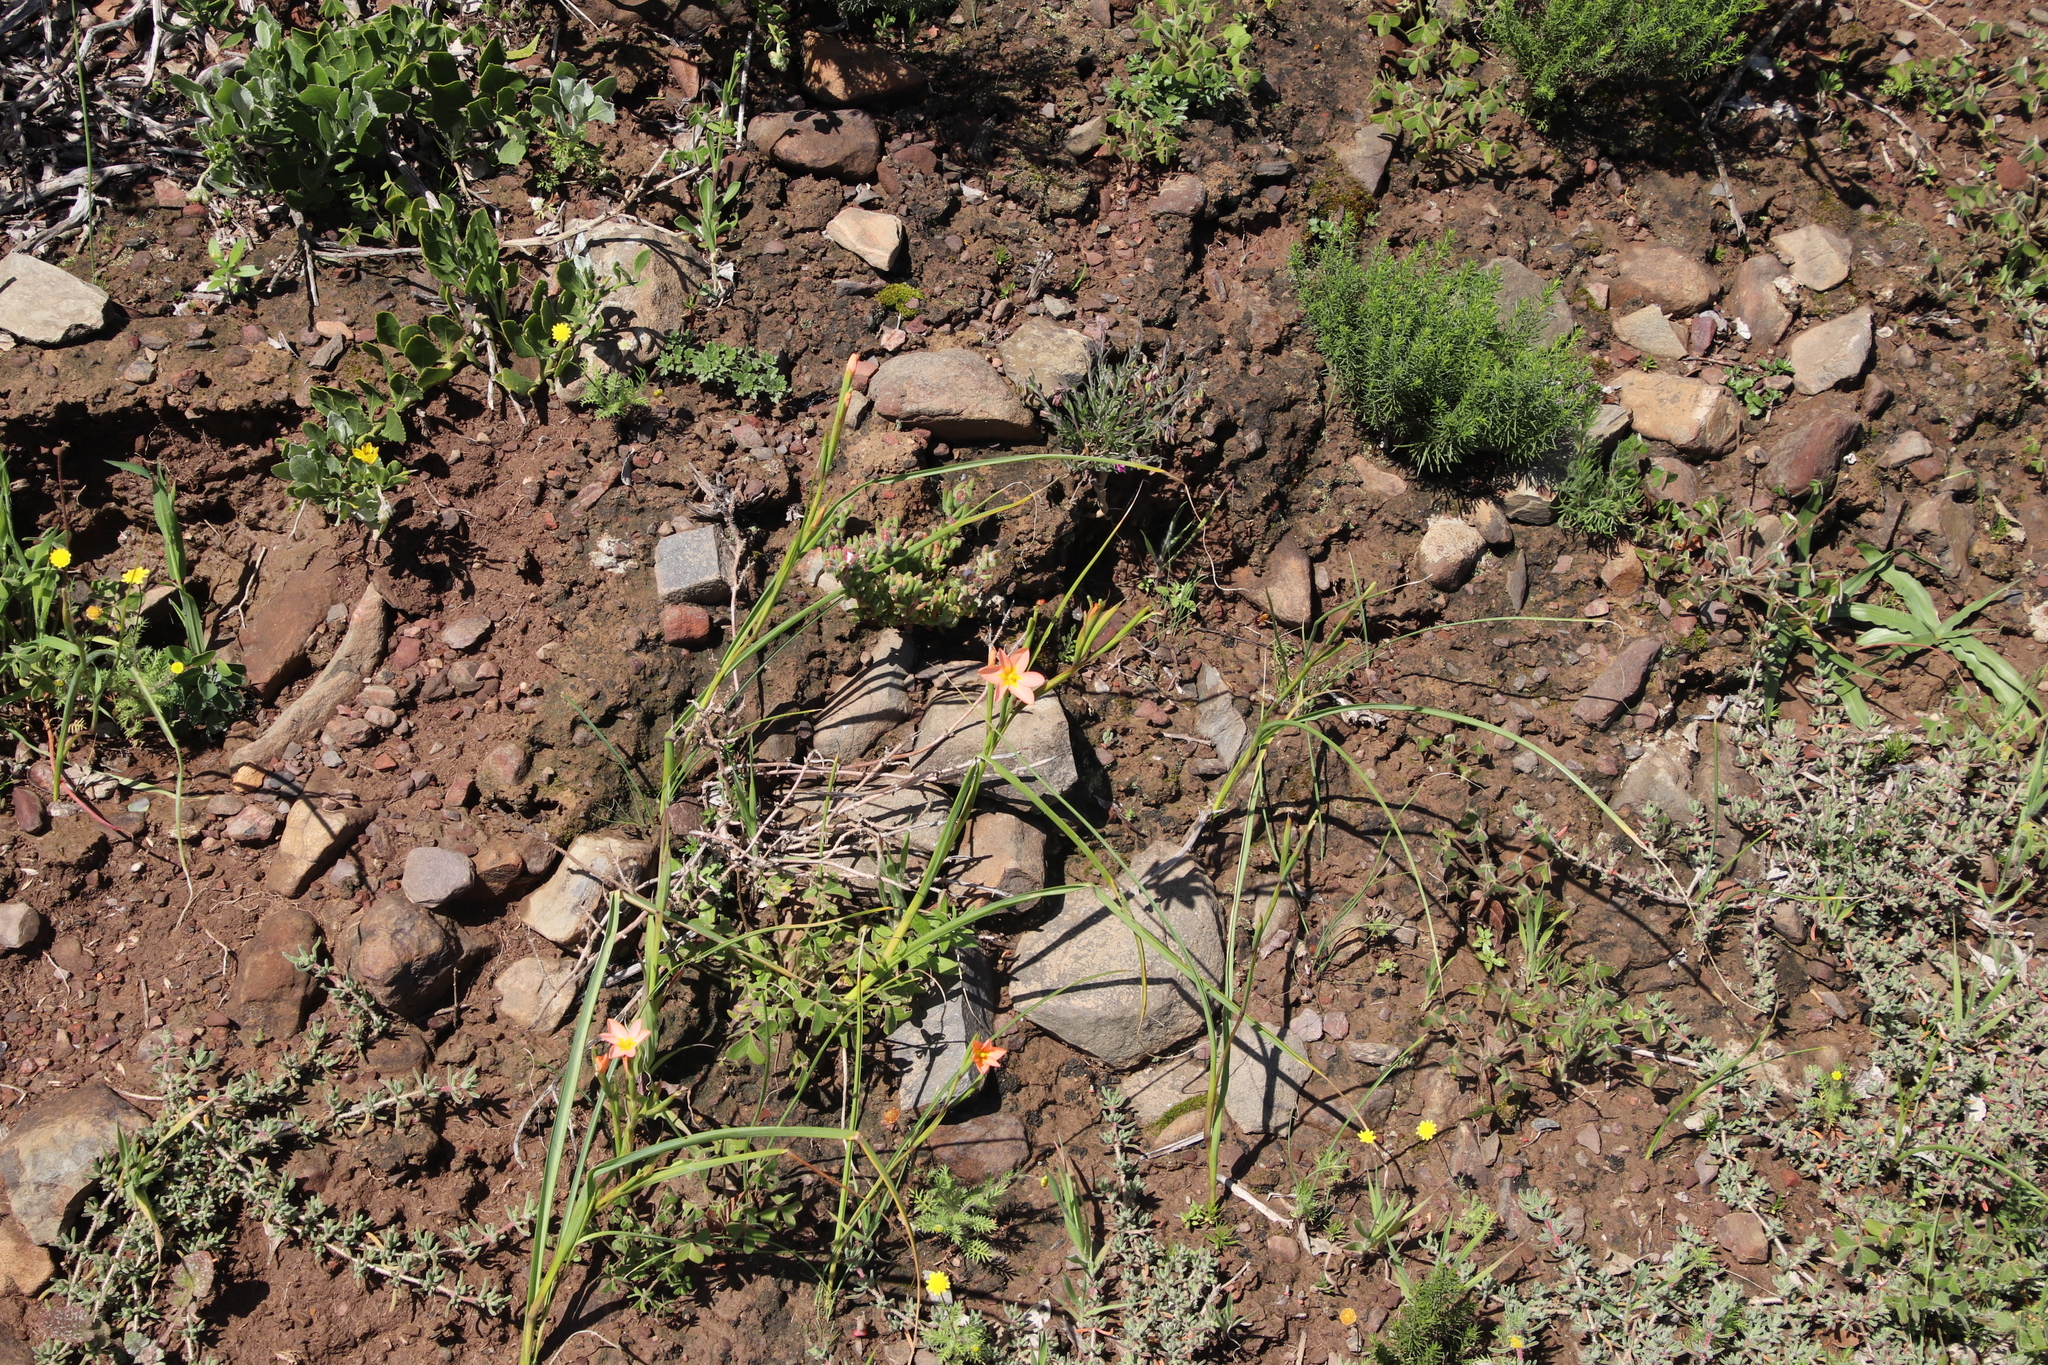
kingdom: Plantae
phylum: Tracheophyta
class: Liliopsida
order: Asparagales
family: Iridaceae
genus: Moraea
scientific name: Moraea miniata
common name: Two-leaf cape-tulip
